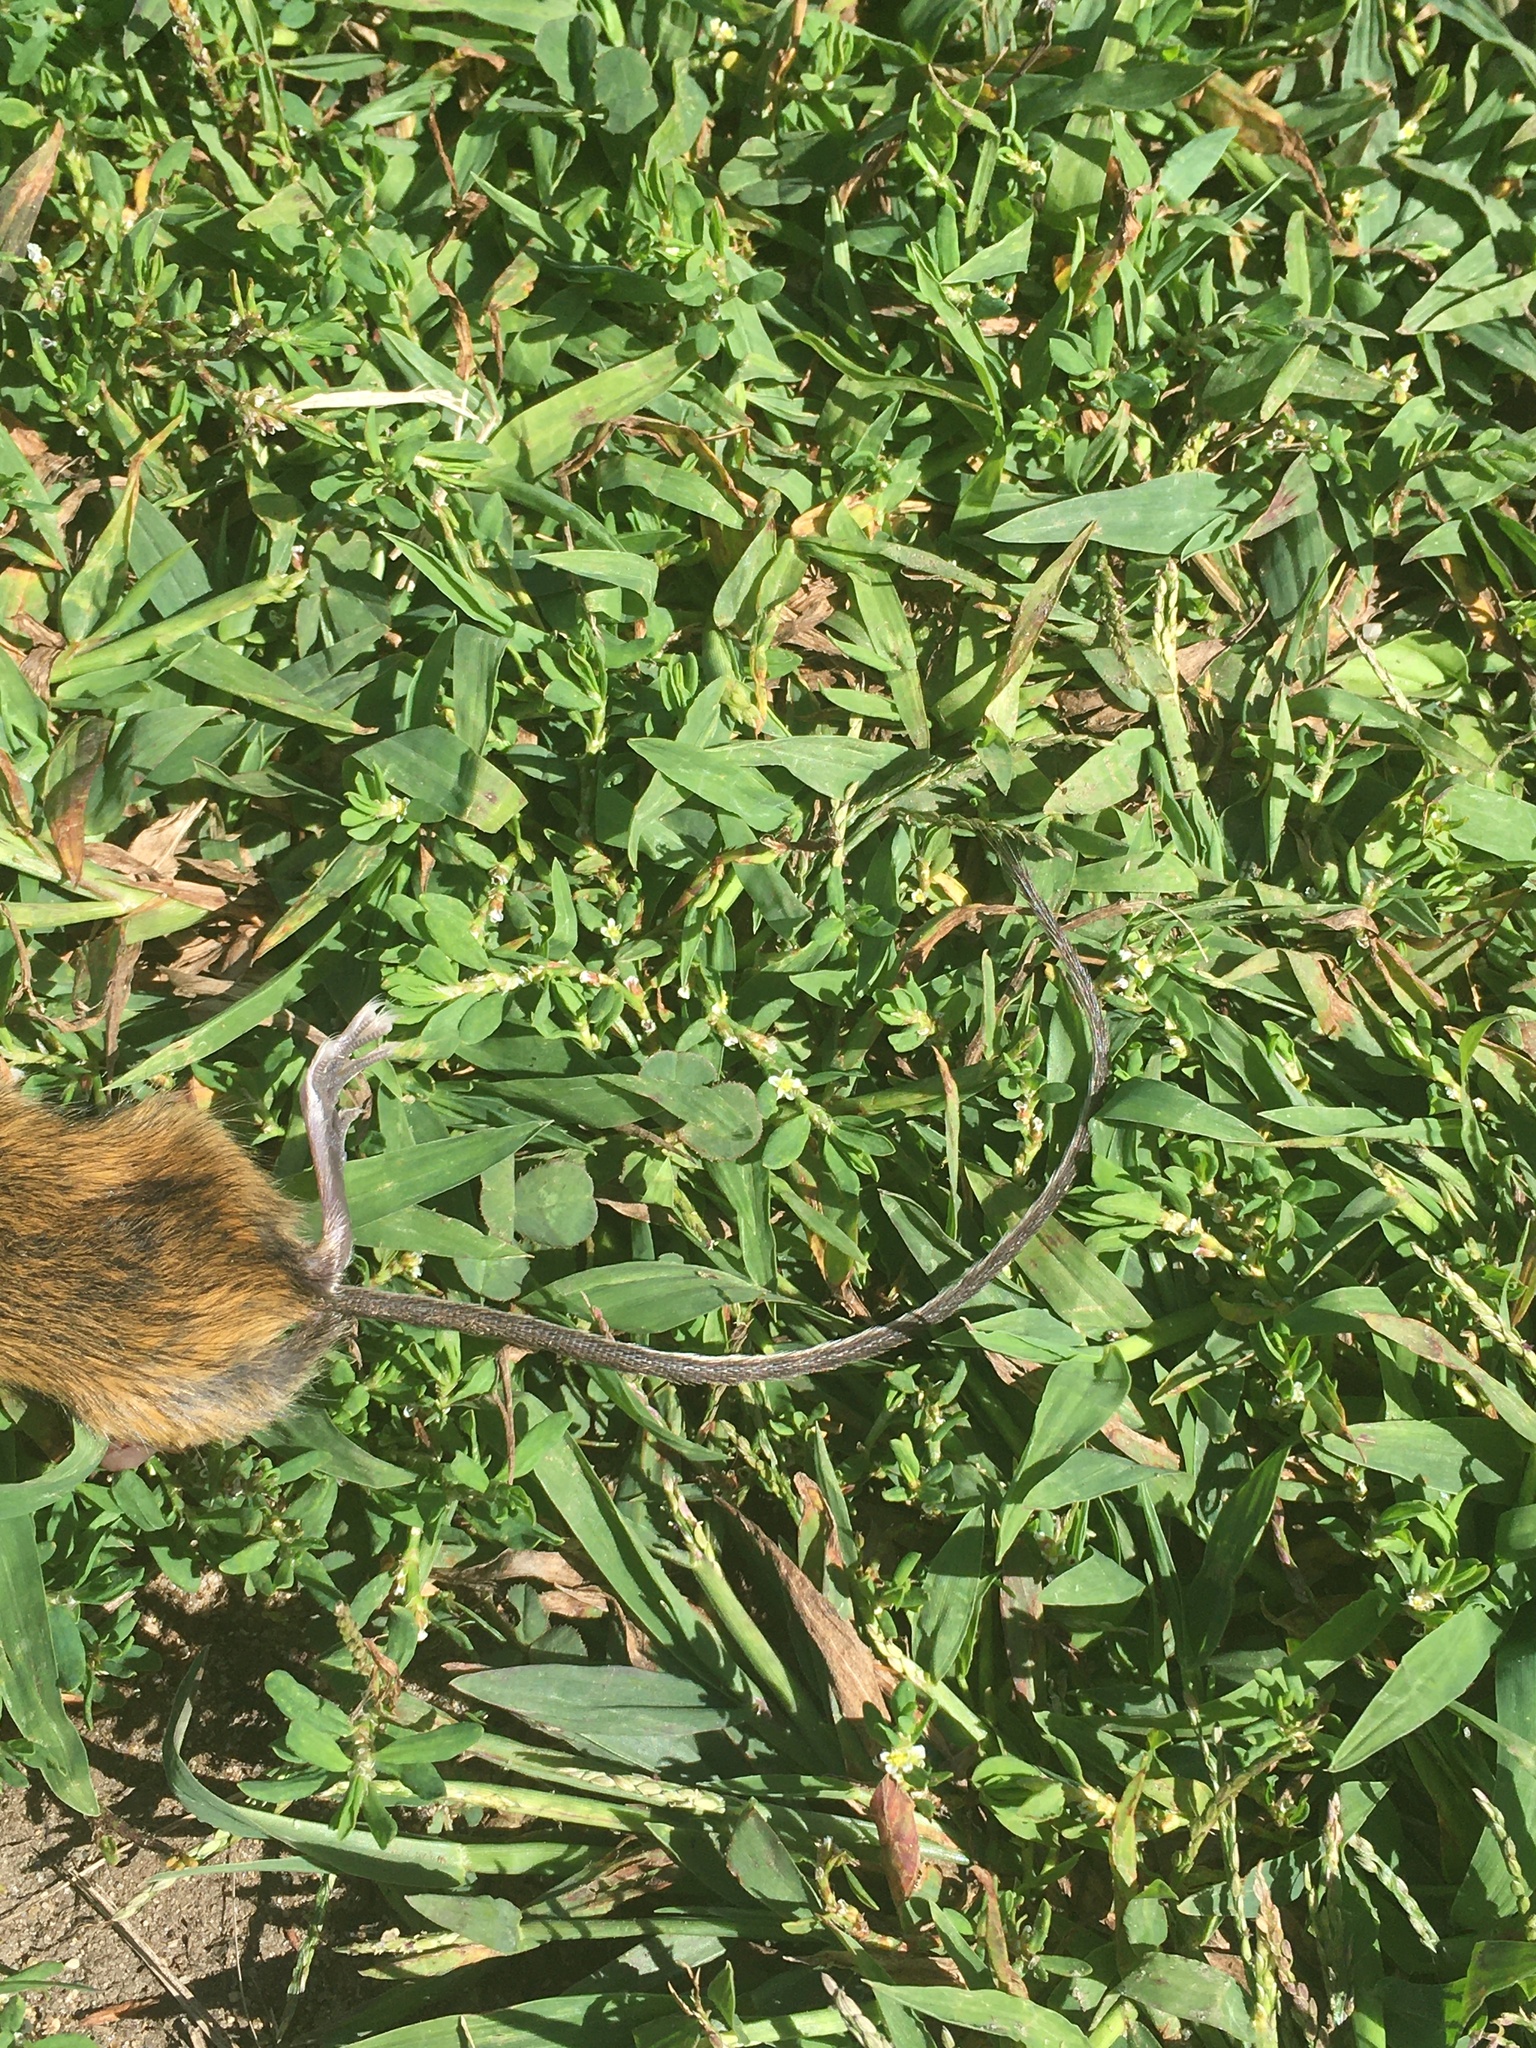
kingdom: Animalia
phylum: Chordata
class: Mammalia
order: Rodentia
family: Dipodidae
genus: Zapus
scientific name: Zapus hudsonius
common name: Meadow jumping mouse
